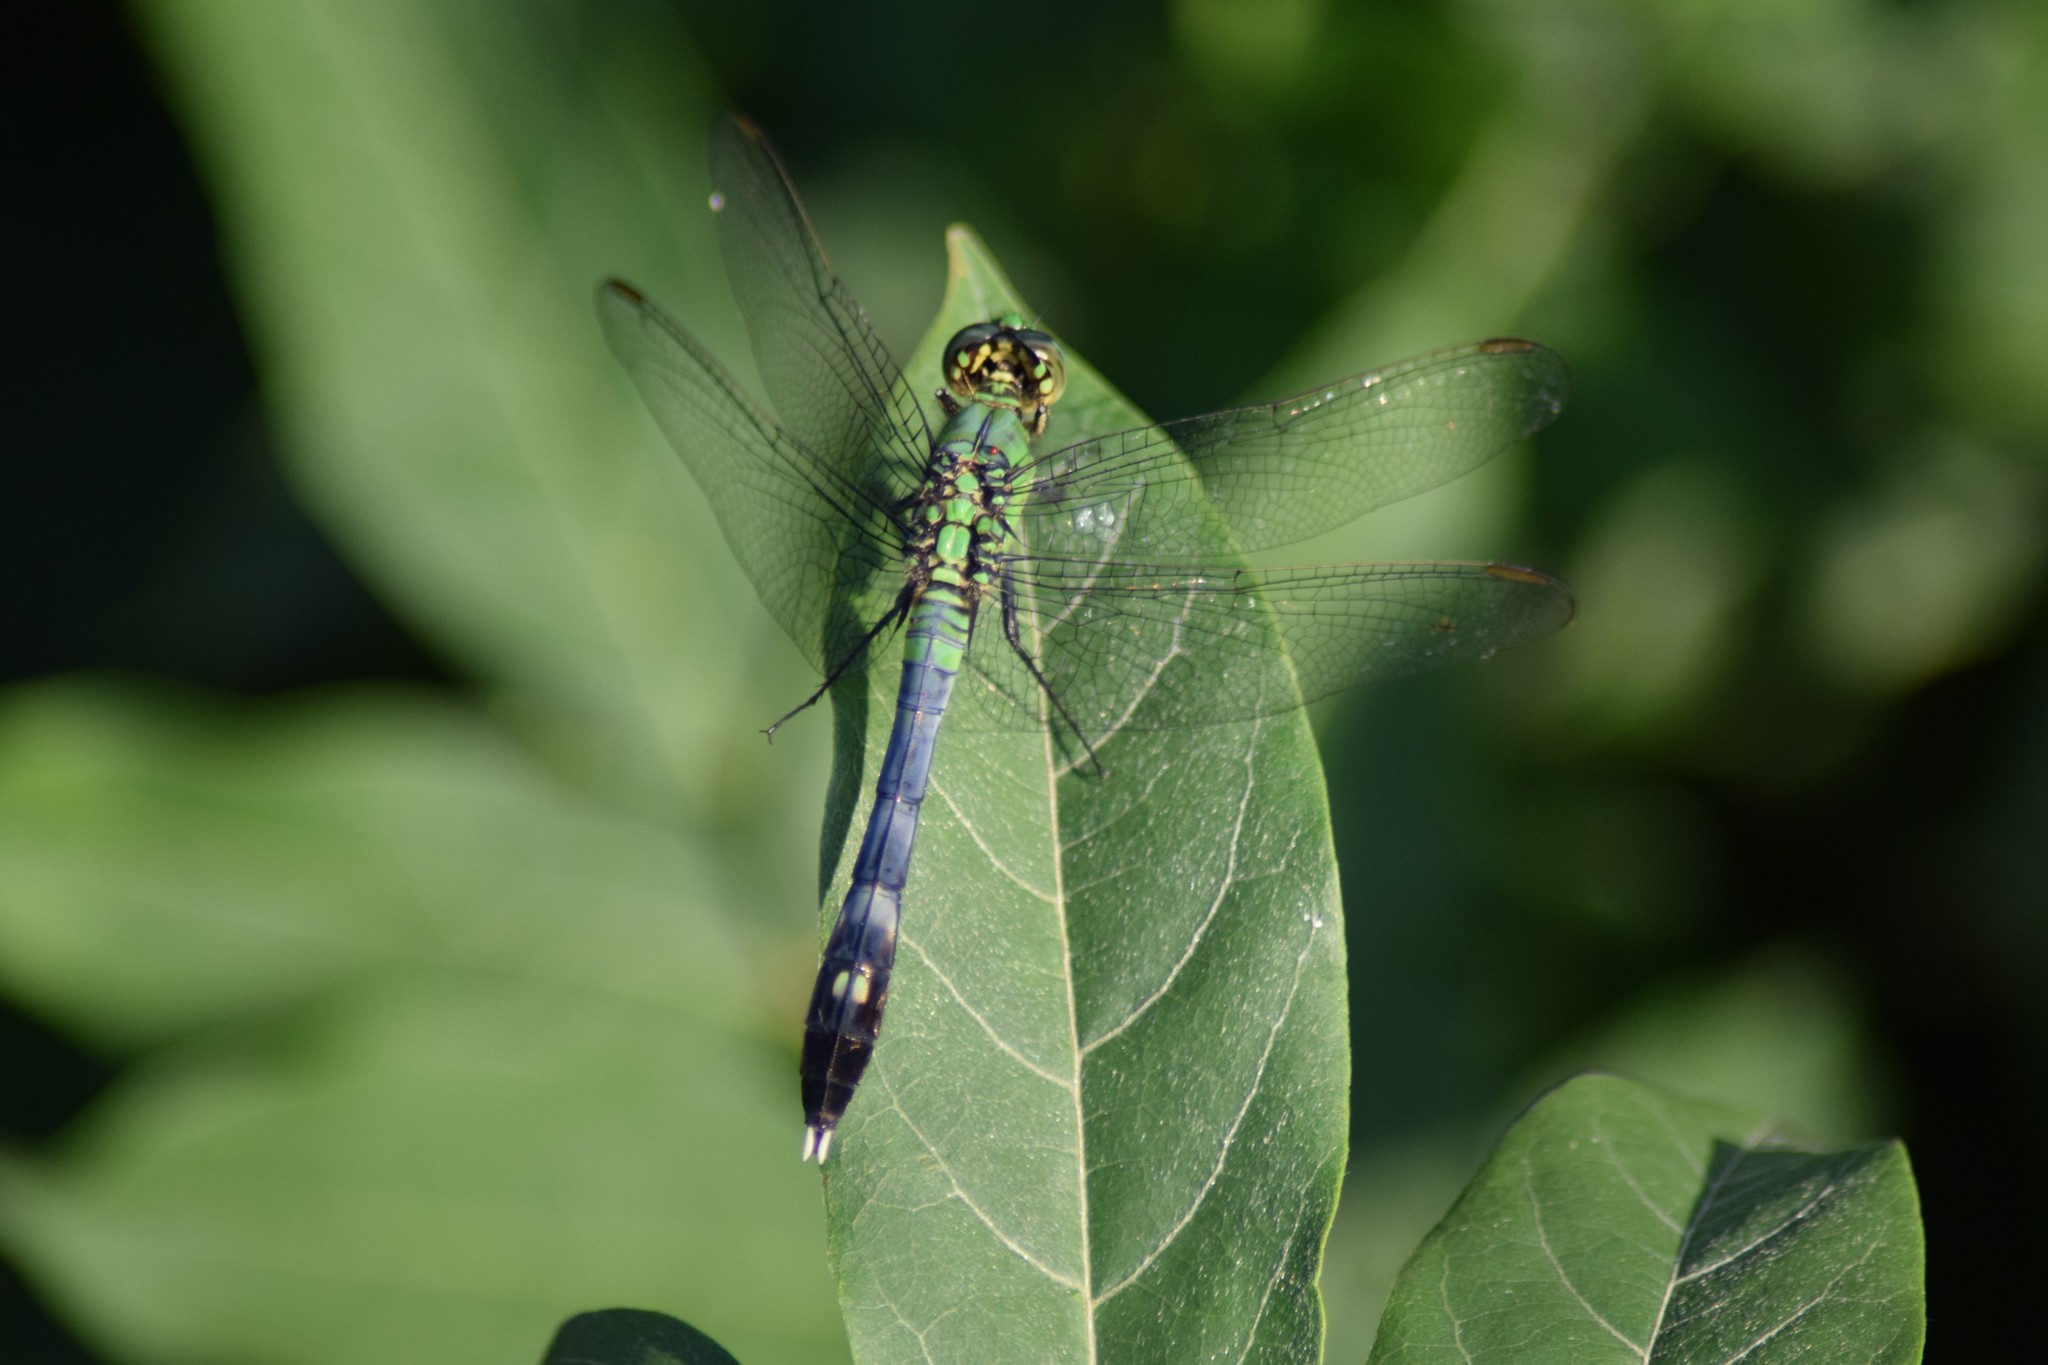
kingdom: Animalia
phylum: Arthropoda
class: Insecta
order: Odonata
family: Libellulidae
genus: Erythemis
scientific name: Erythemis simplicicollis
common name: Eastern pondhawk
